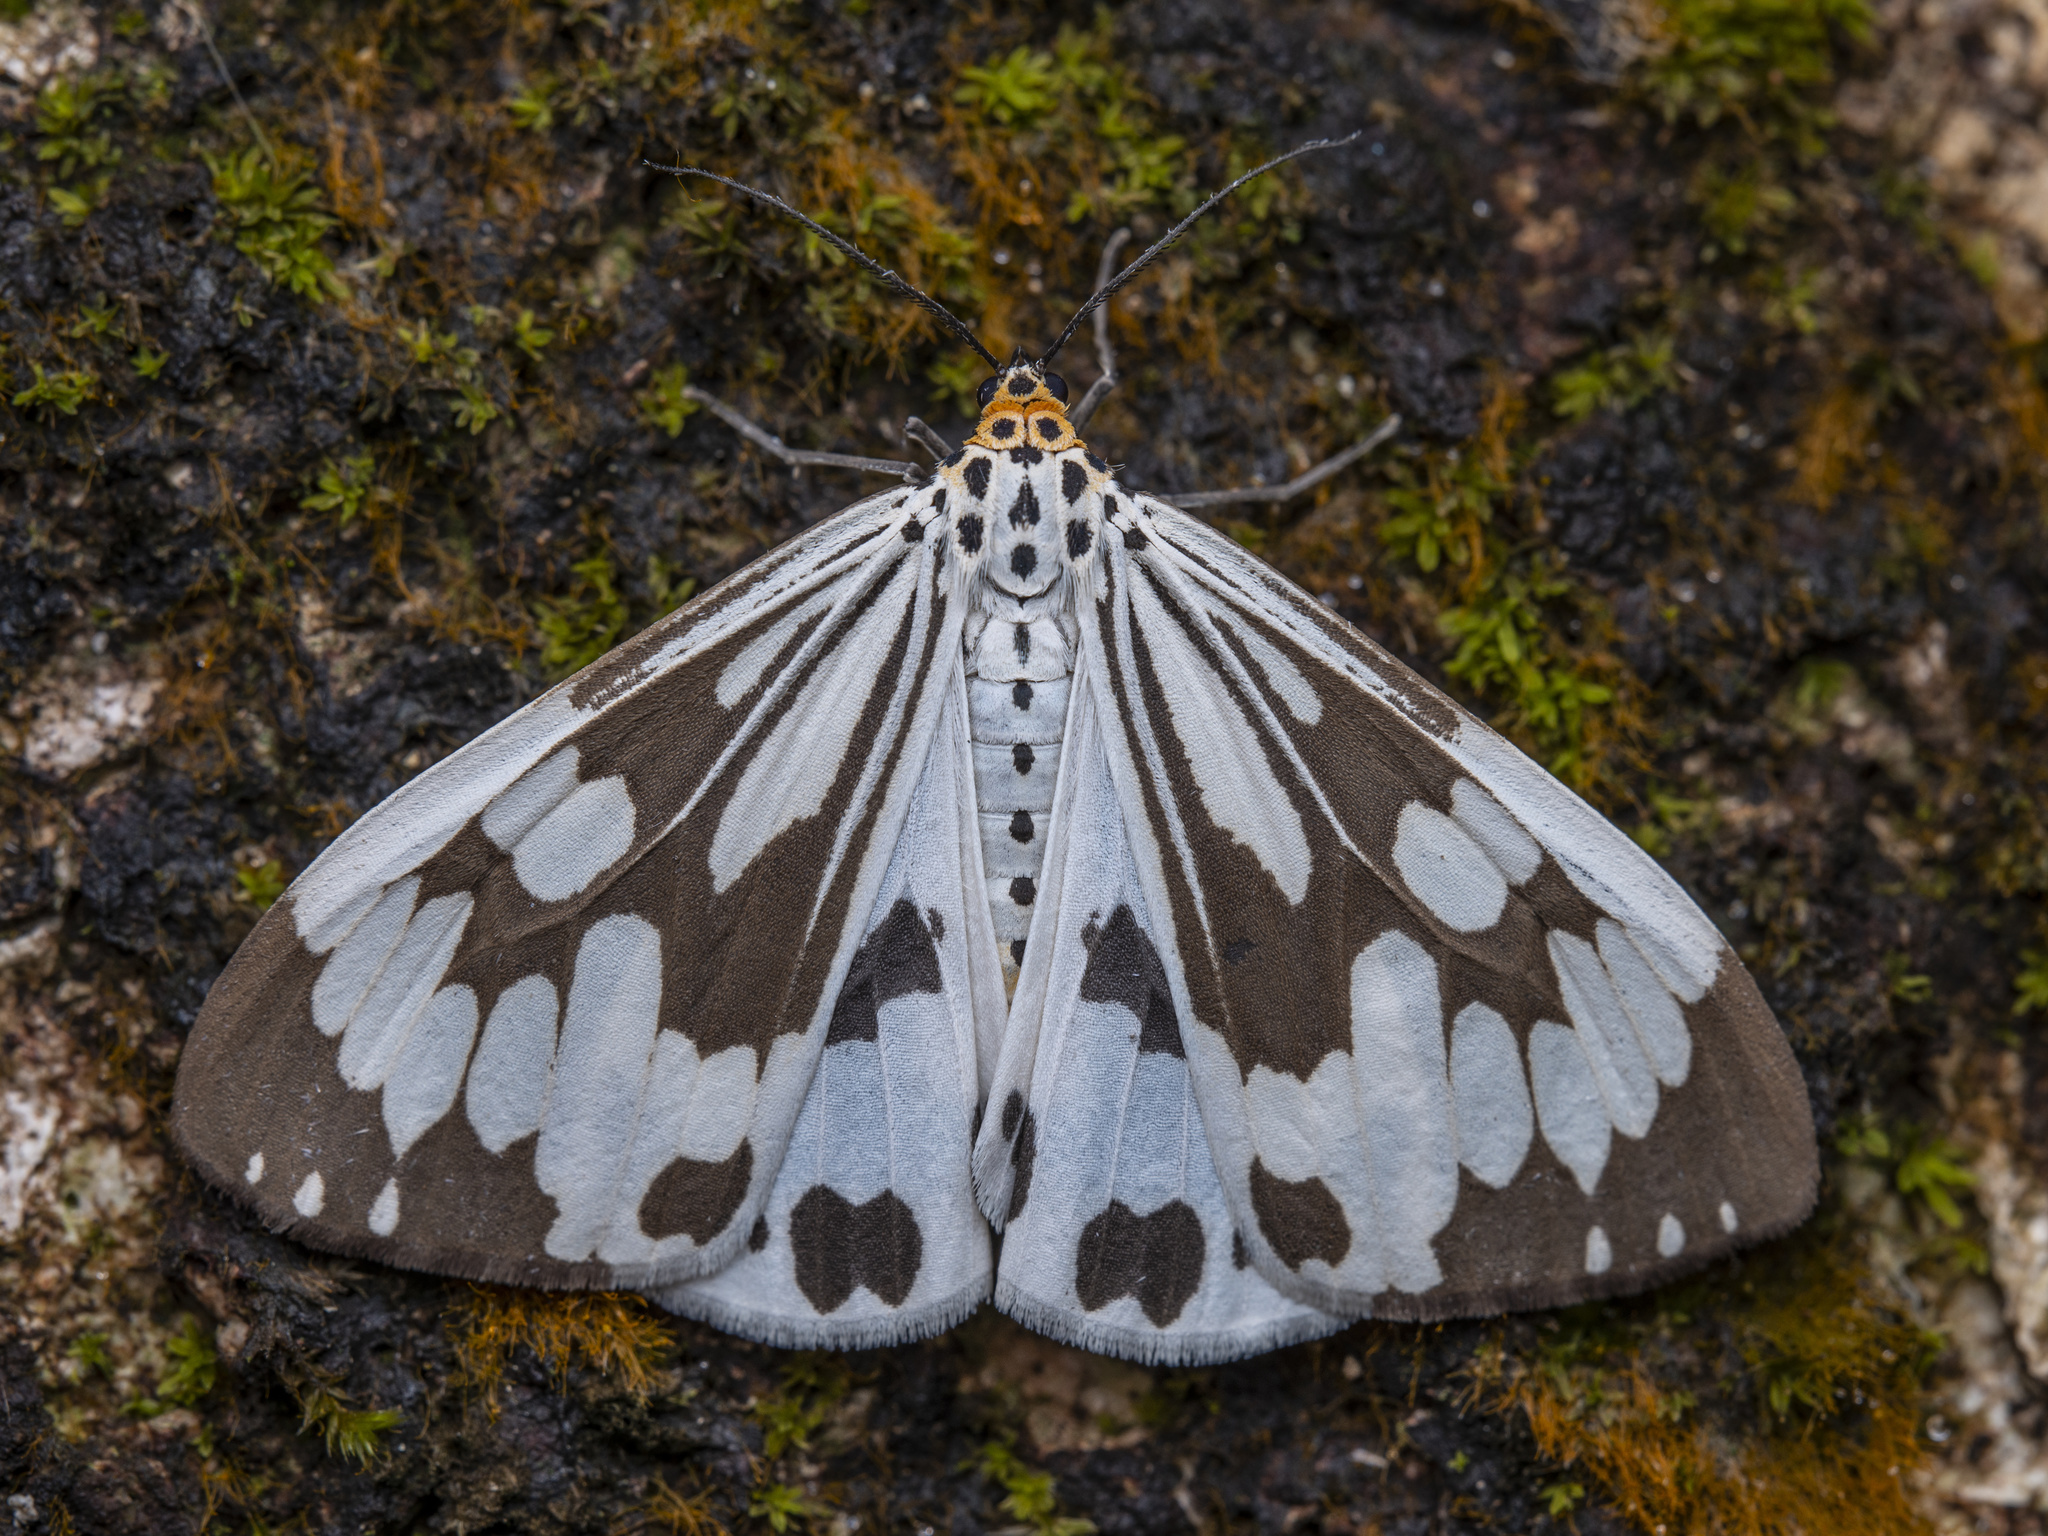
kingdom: Animalia
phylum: Arthropoda
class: Insecta
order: Lepidoptera
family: Erebidae
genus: Nyctemera
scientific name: Nyctemera adversata
